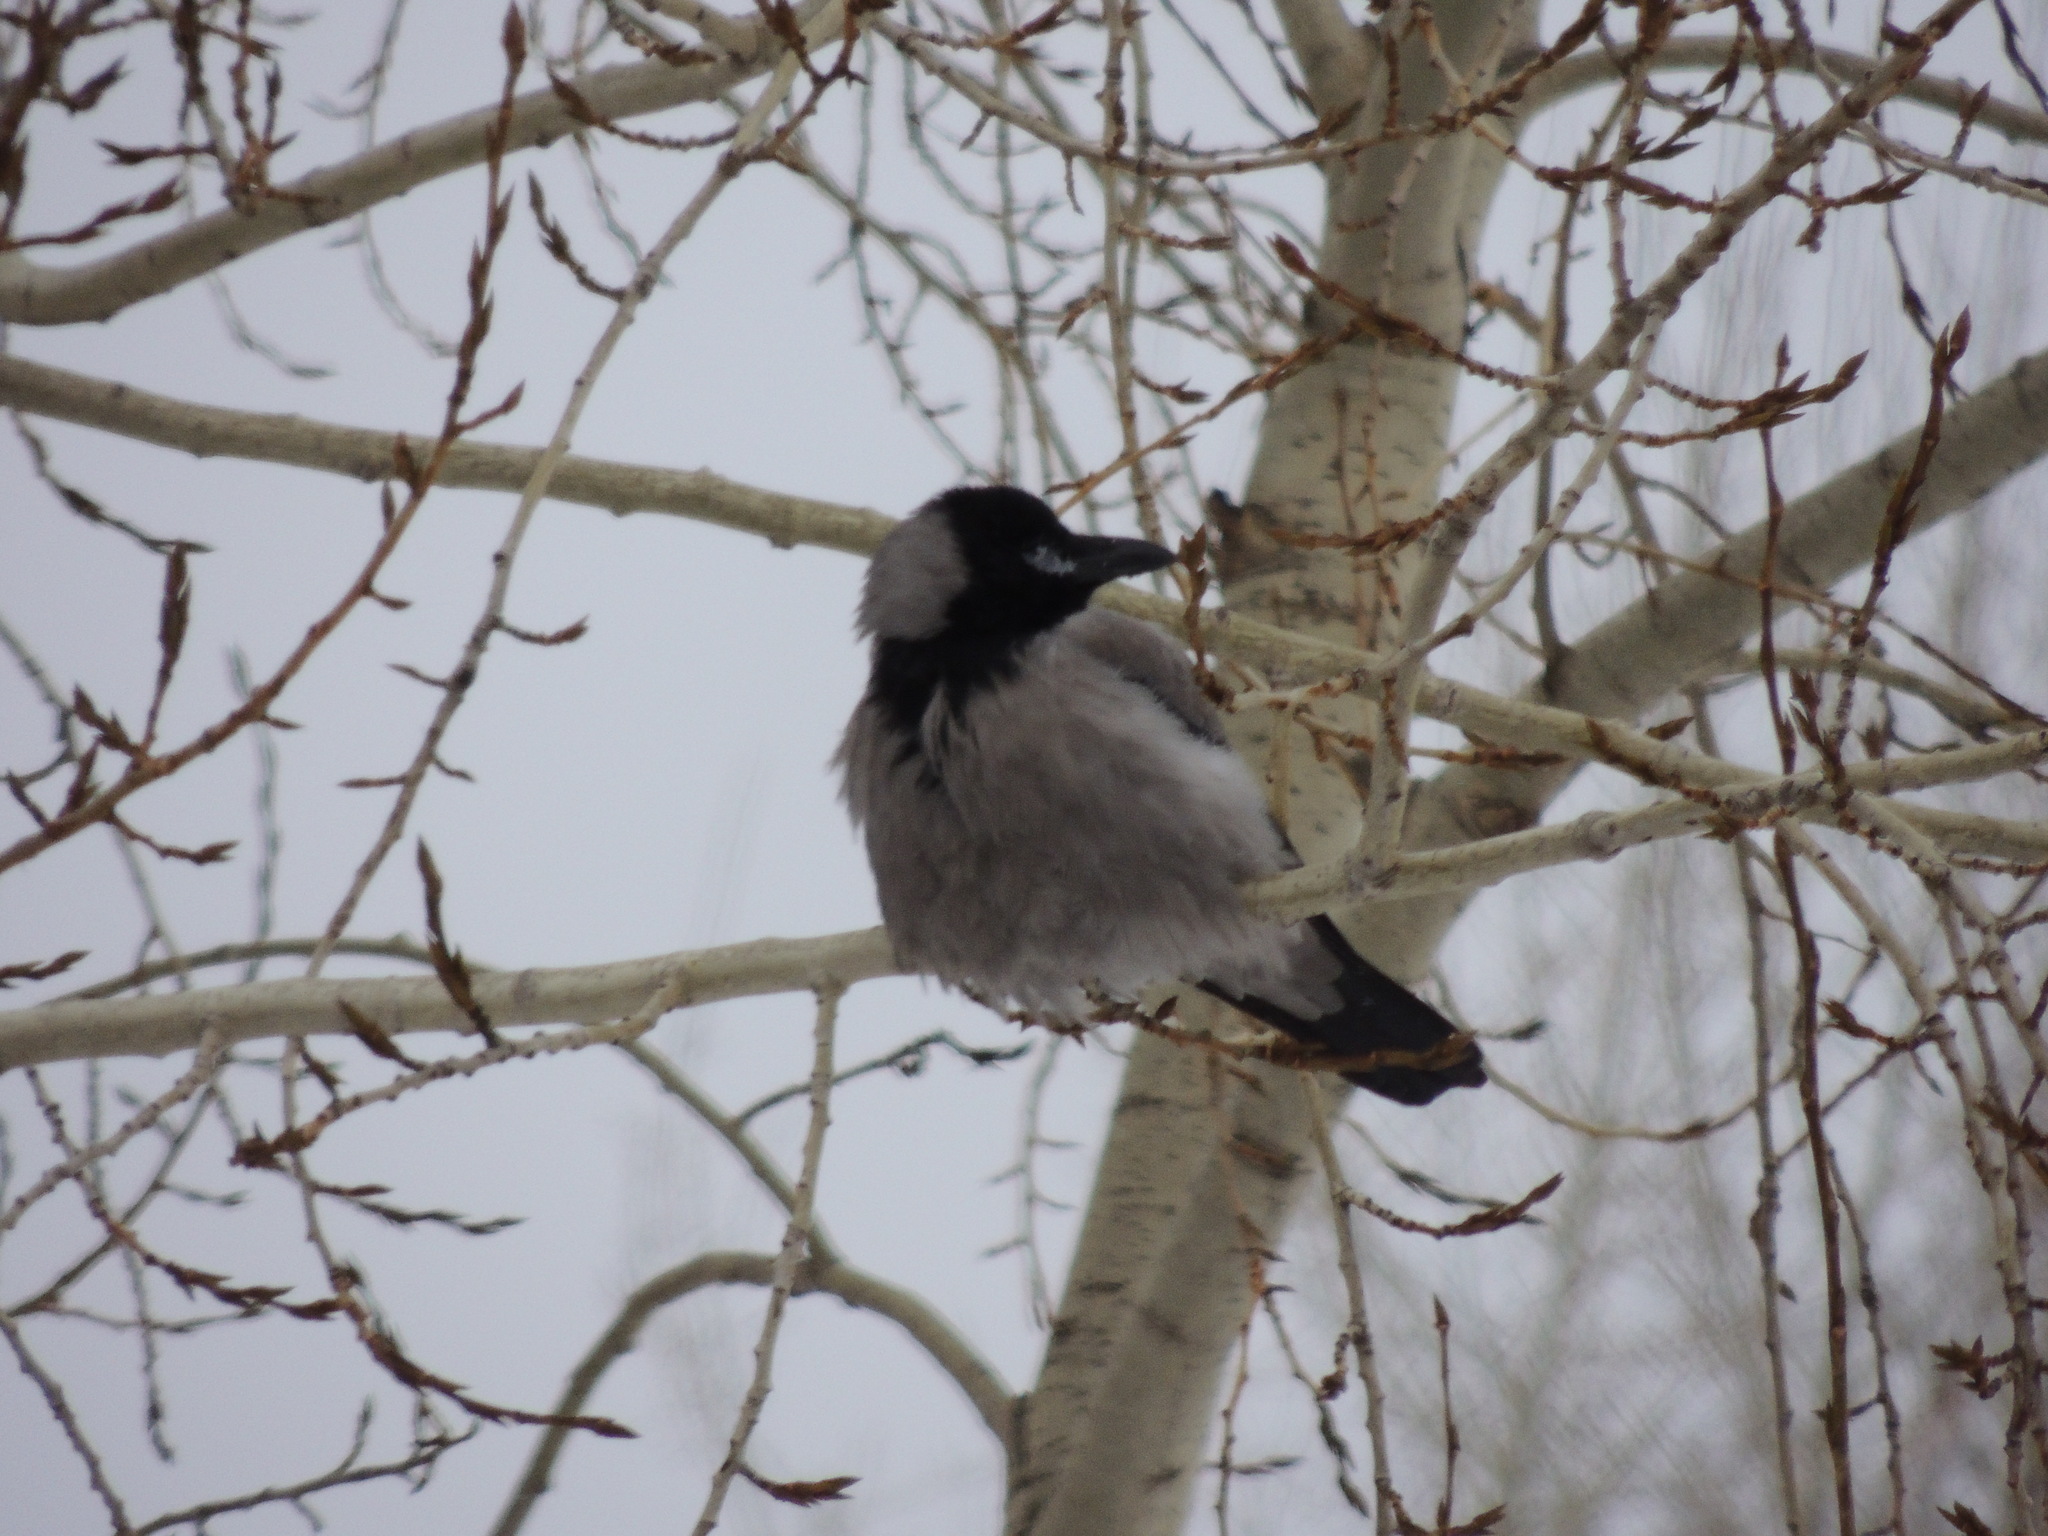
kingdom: Animalia
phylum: Chordata
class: Aves
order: Passeriformes
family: Corvidae
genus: Corvus
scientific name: Corvus cornix
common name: Hooded crow
